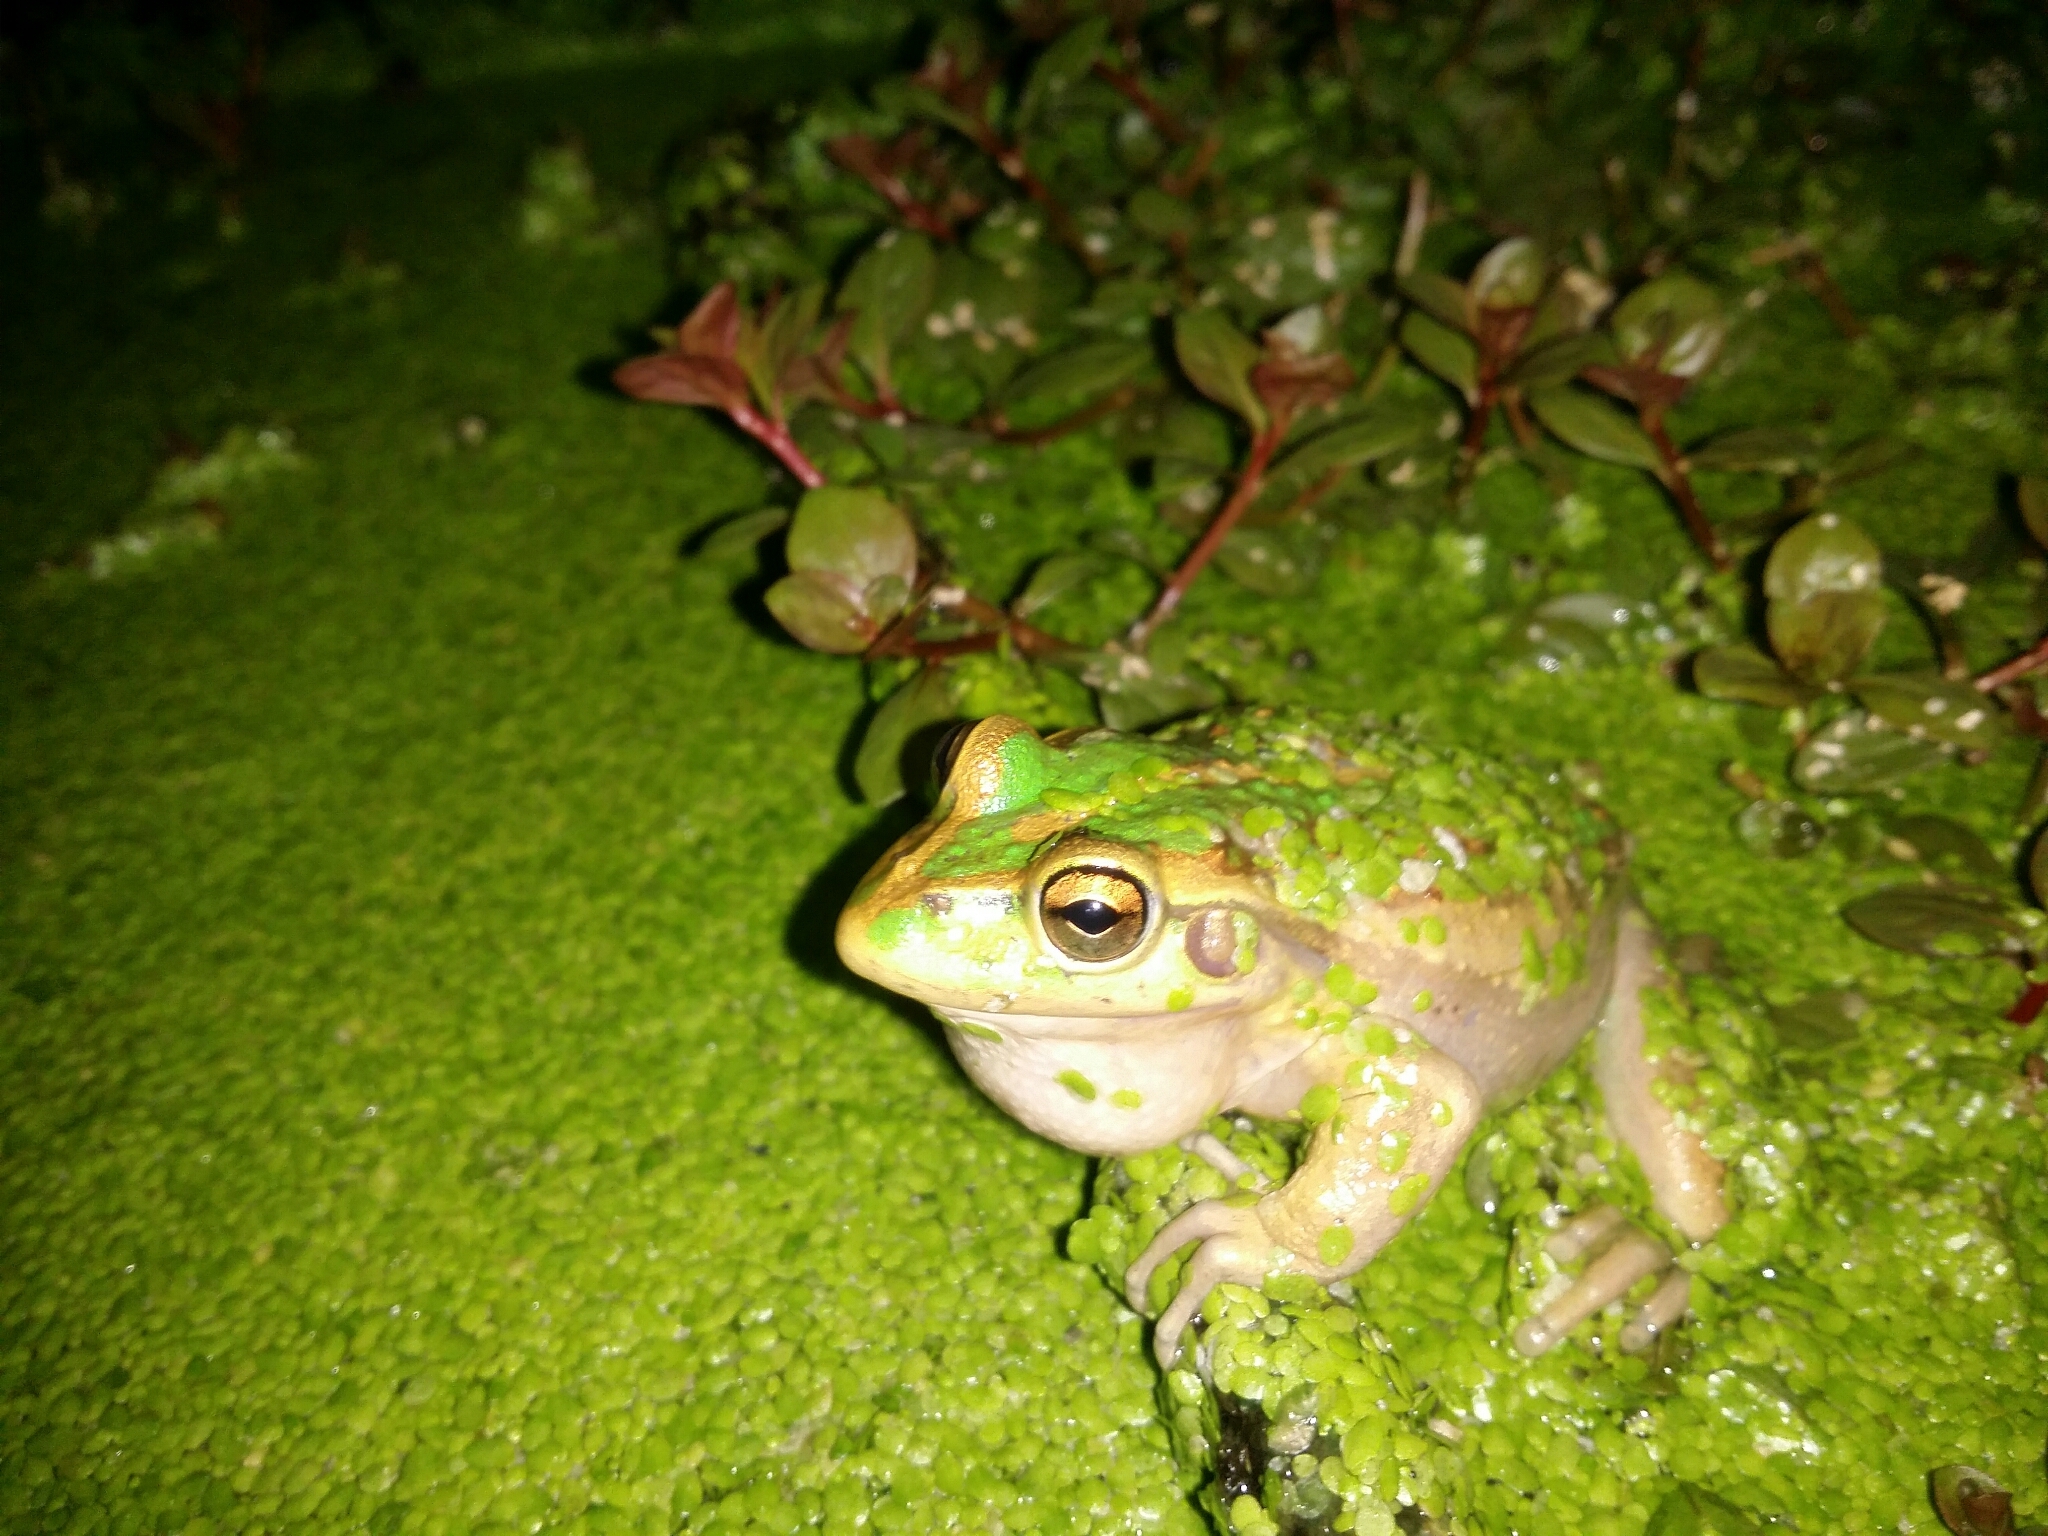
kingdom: Animalia
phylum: Chordata
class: Amphibia
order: Anura
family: Pelodryadidae
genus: Ranoidea
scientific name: Ranoidea moorei
